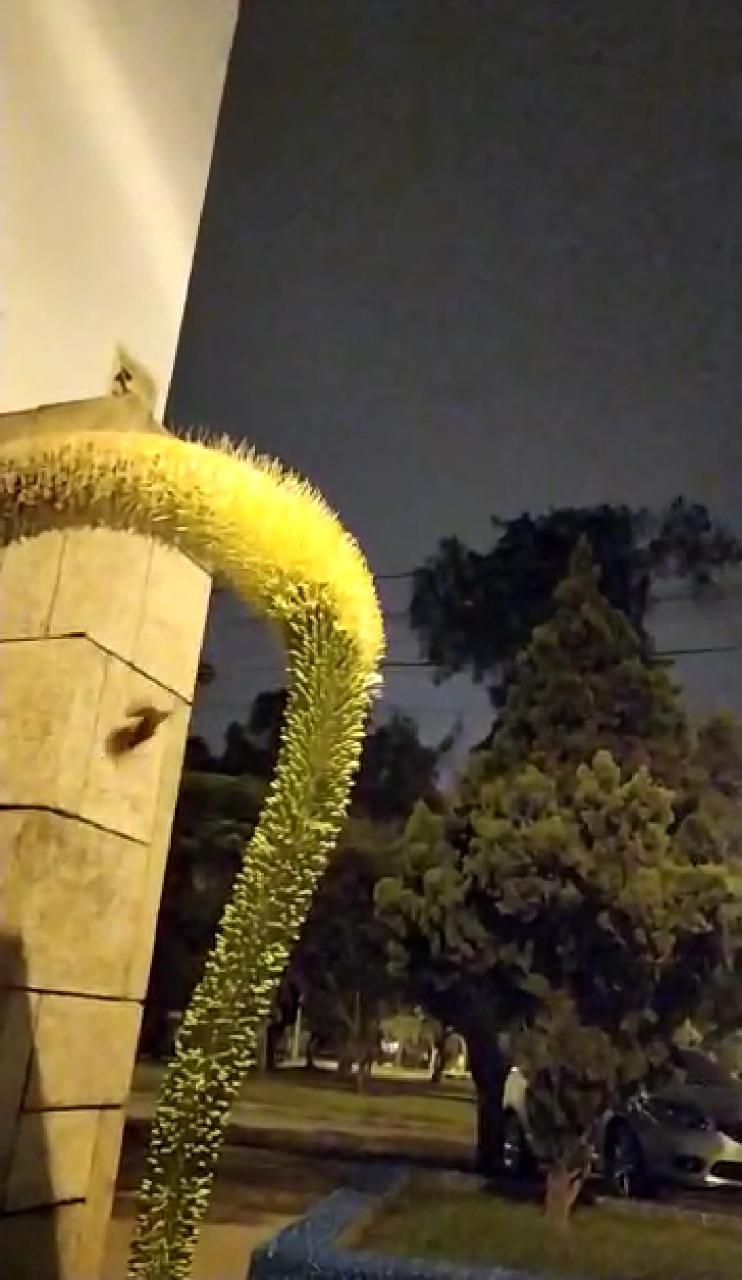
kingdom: Animalia
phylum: Chordata
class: Mammalia
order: Chiroptera
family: Phyllostomidae
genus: Glossophaga
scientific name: Glossophaga soricina
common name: Pallas's long-tongued bat
